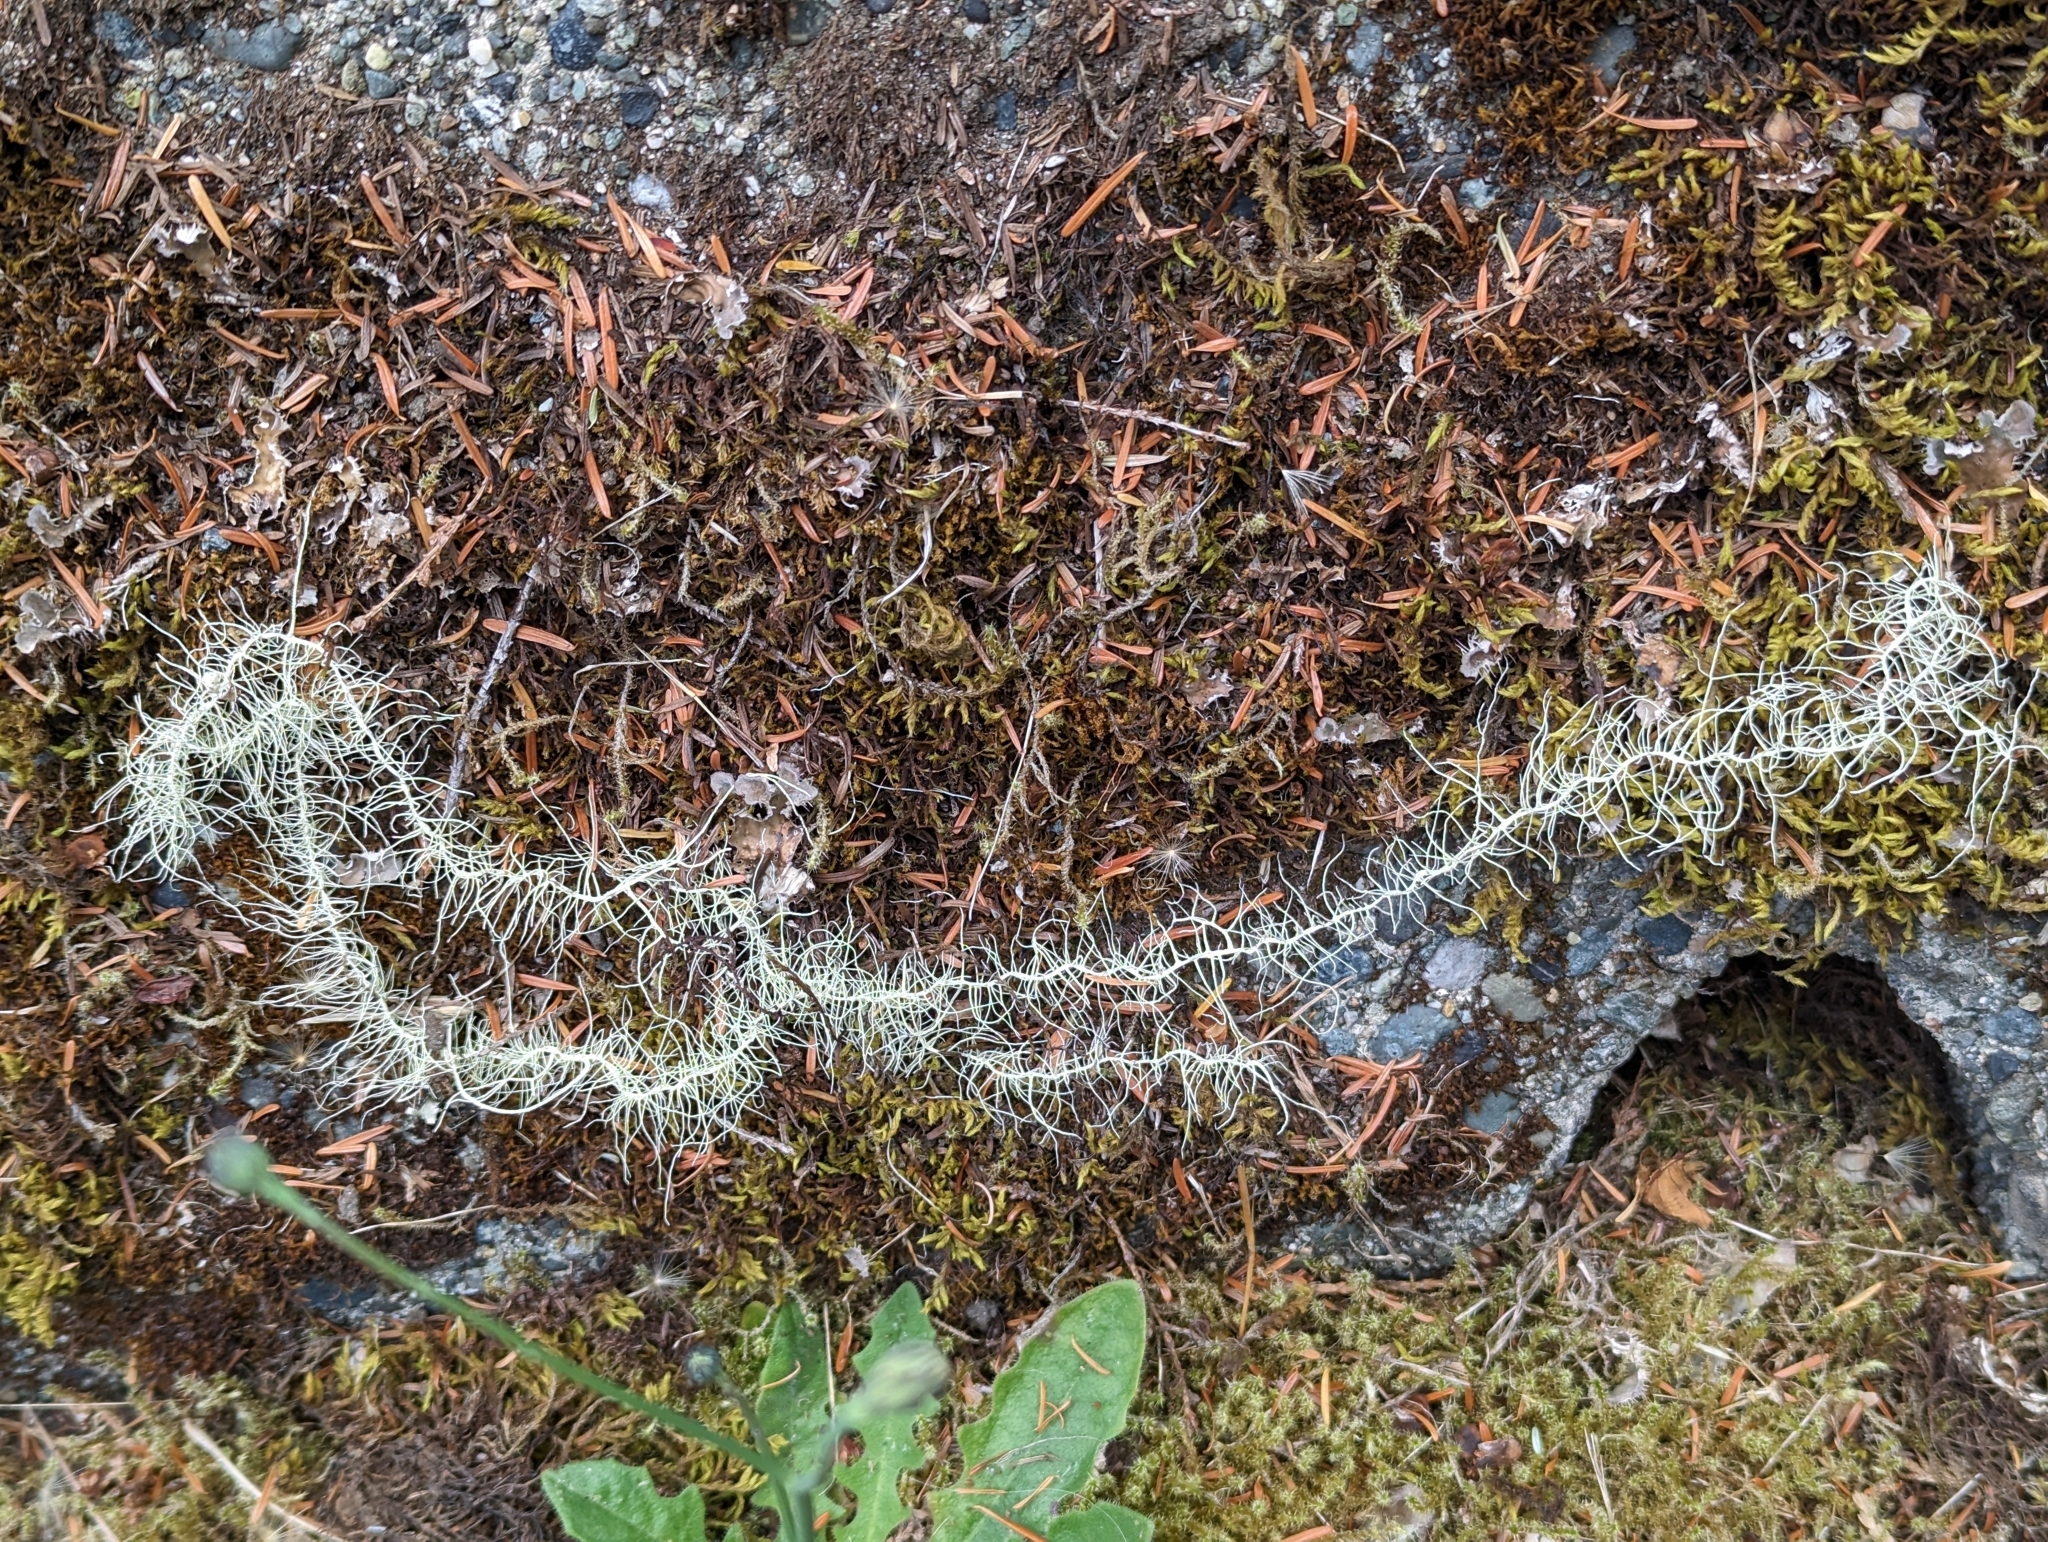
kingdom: Fungi
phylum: Ascomycota
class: Lecanoromycetes
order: Lecanorales
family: Parmeliaceae
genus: Dolichousnea
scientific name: Dolichousnea longissima
